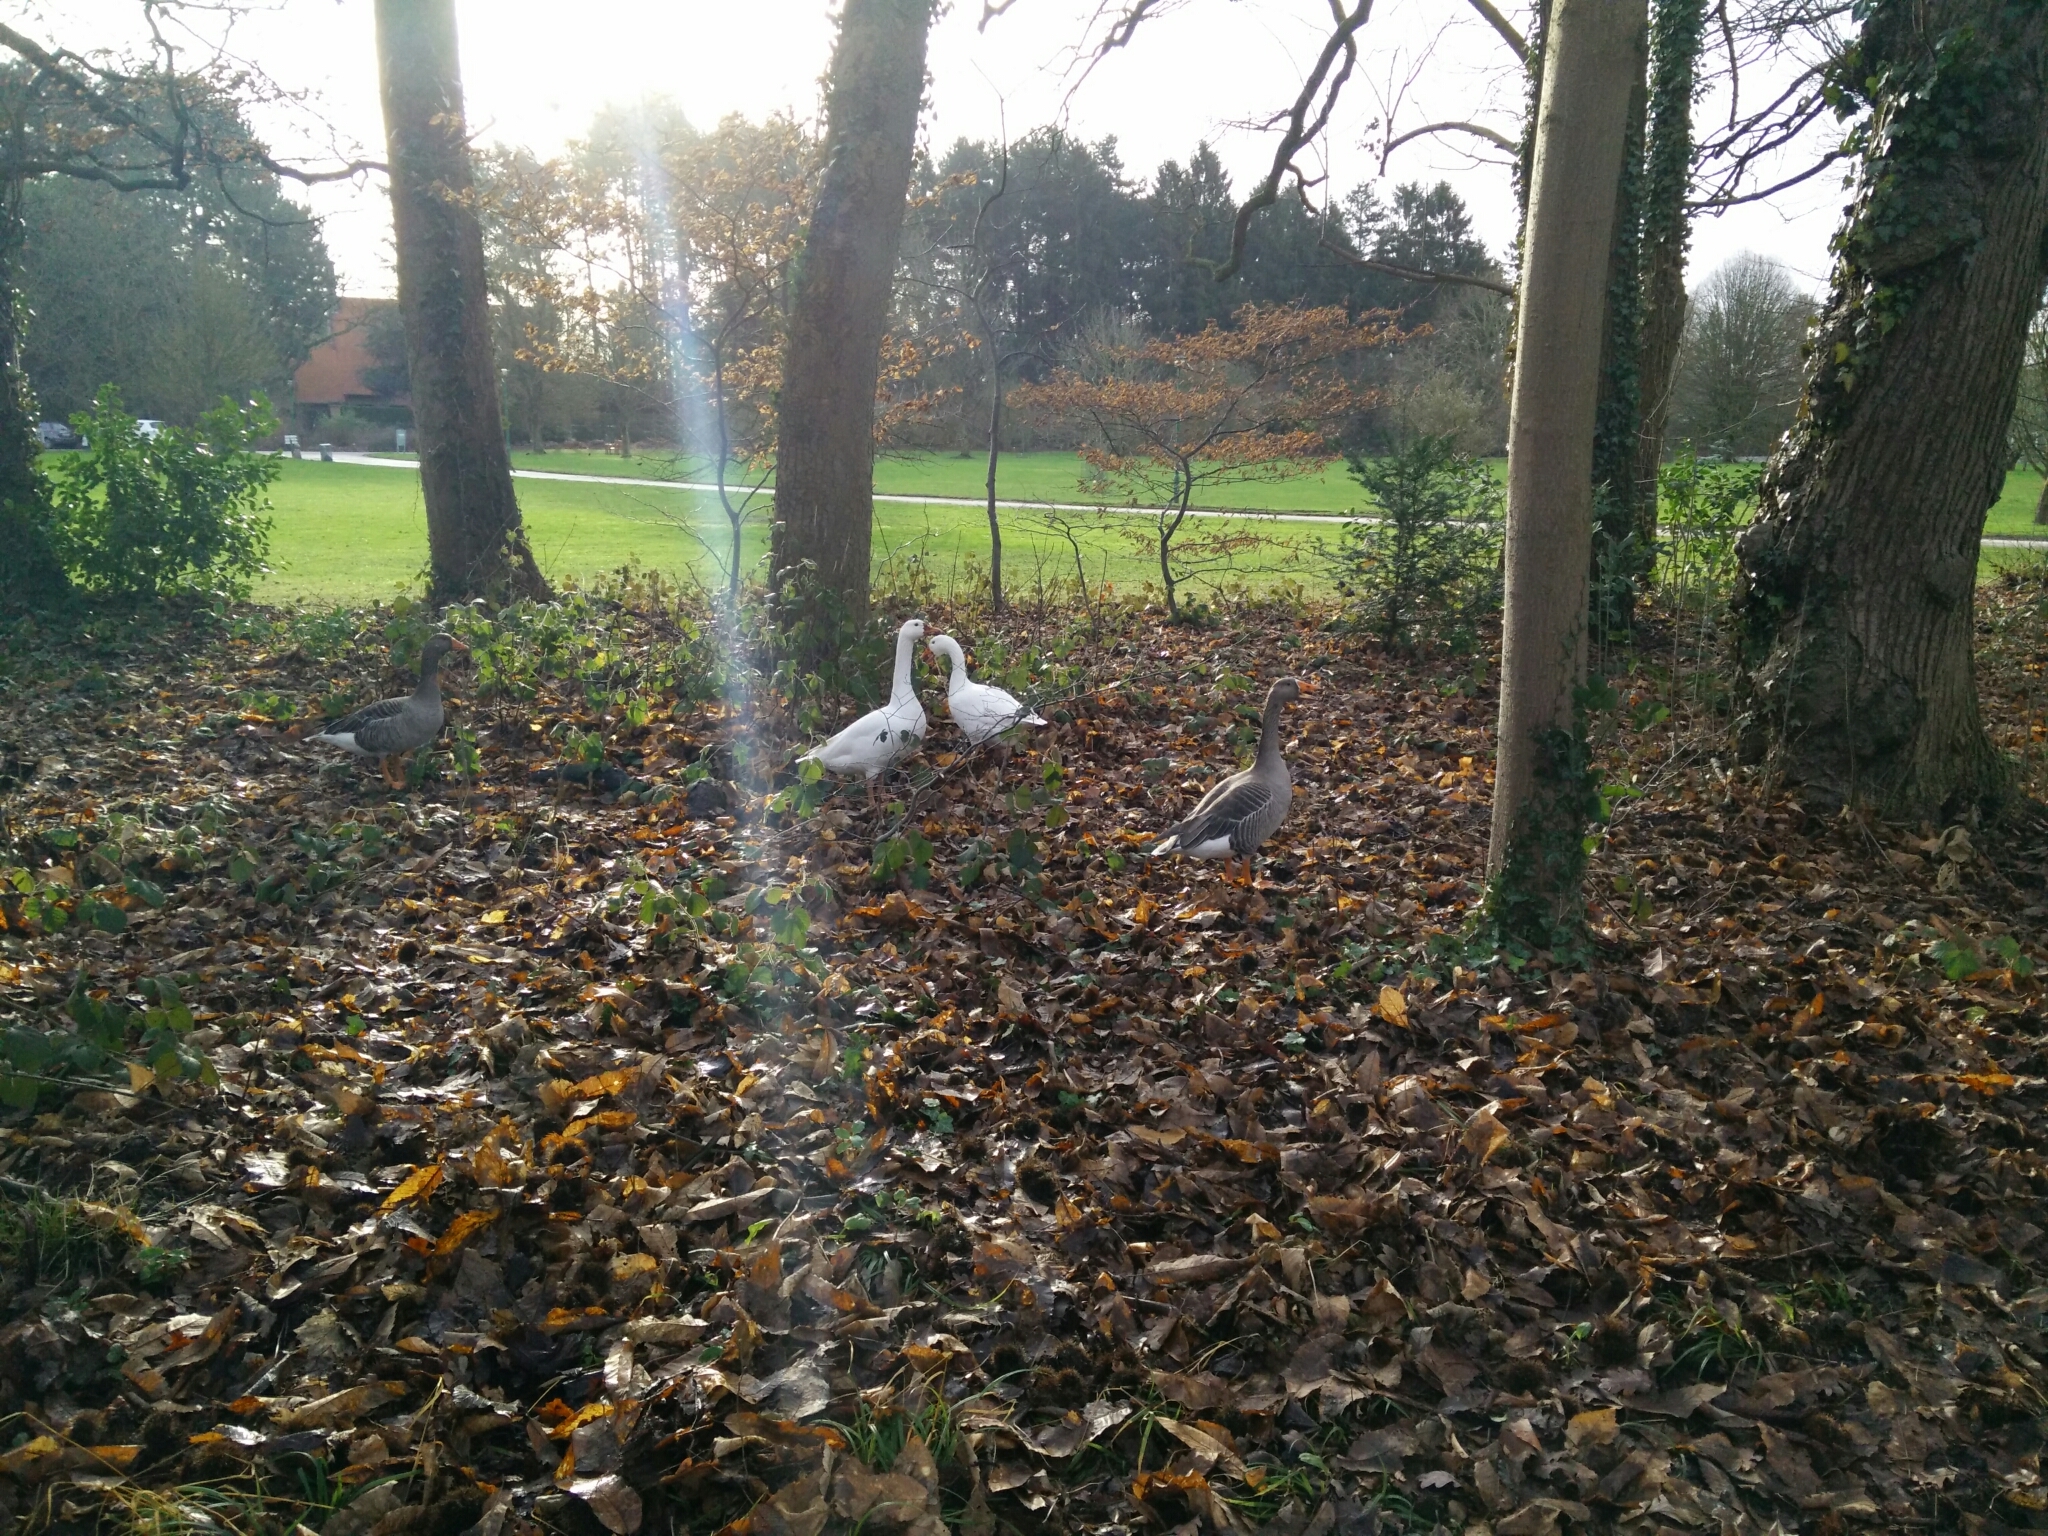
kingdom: Animalia
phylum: Chordata
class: Aves
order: Anseriformes
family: Anatidae
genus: Anser
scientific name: Anser anser
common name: Greylag goose
